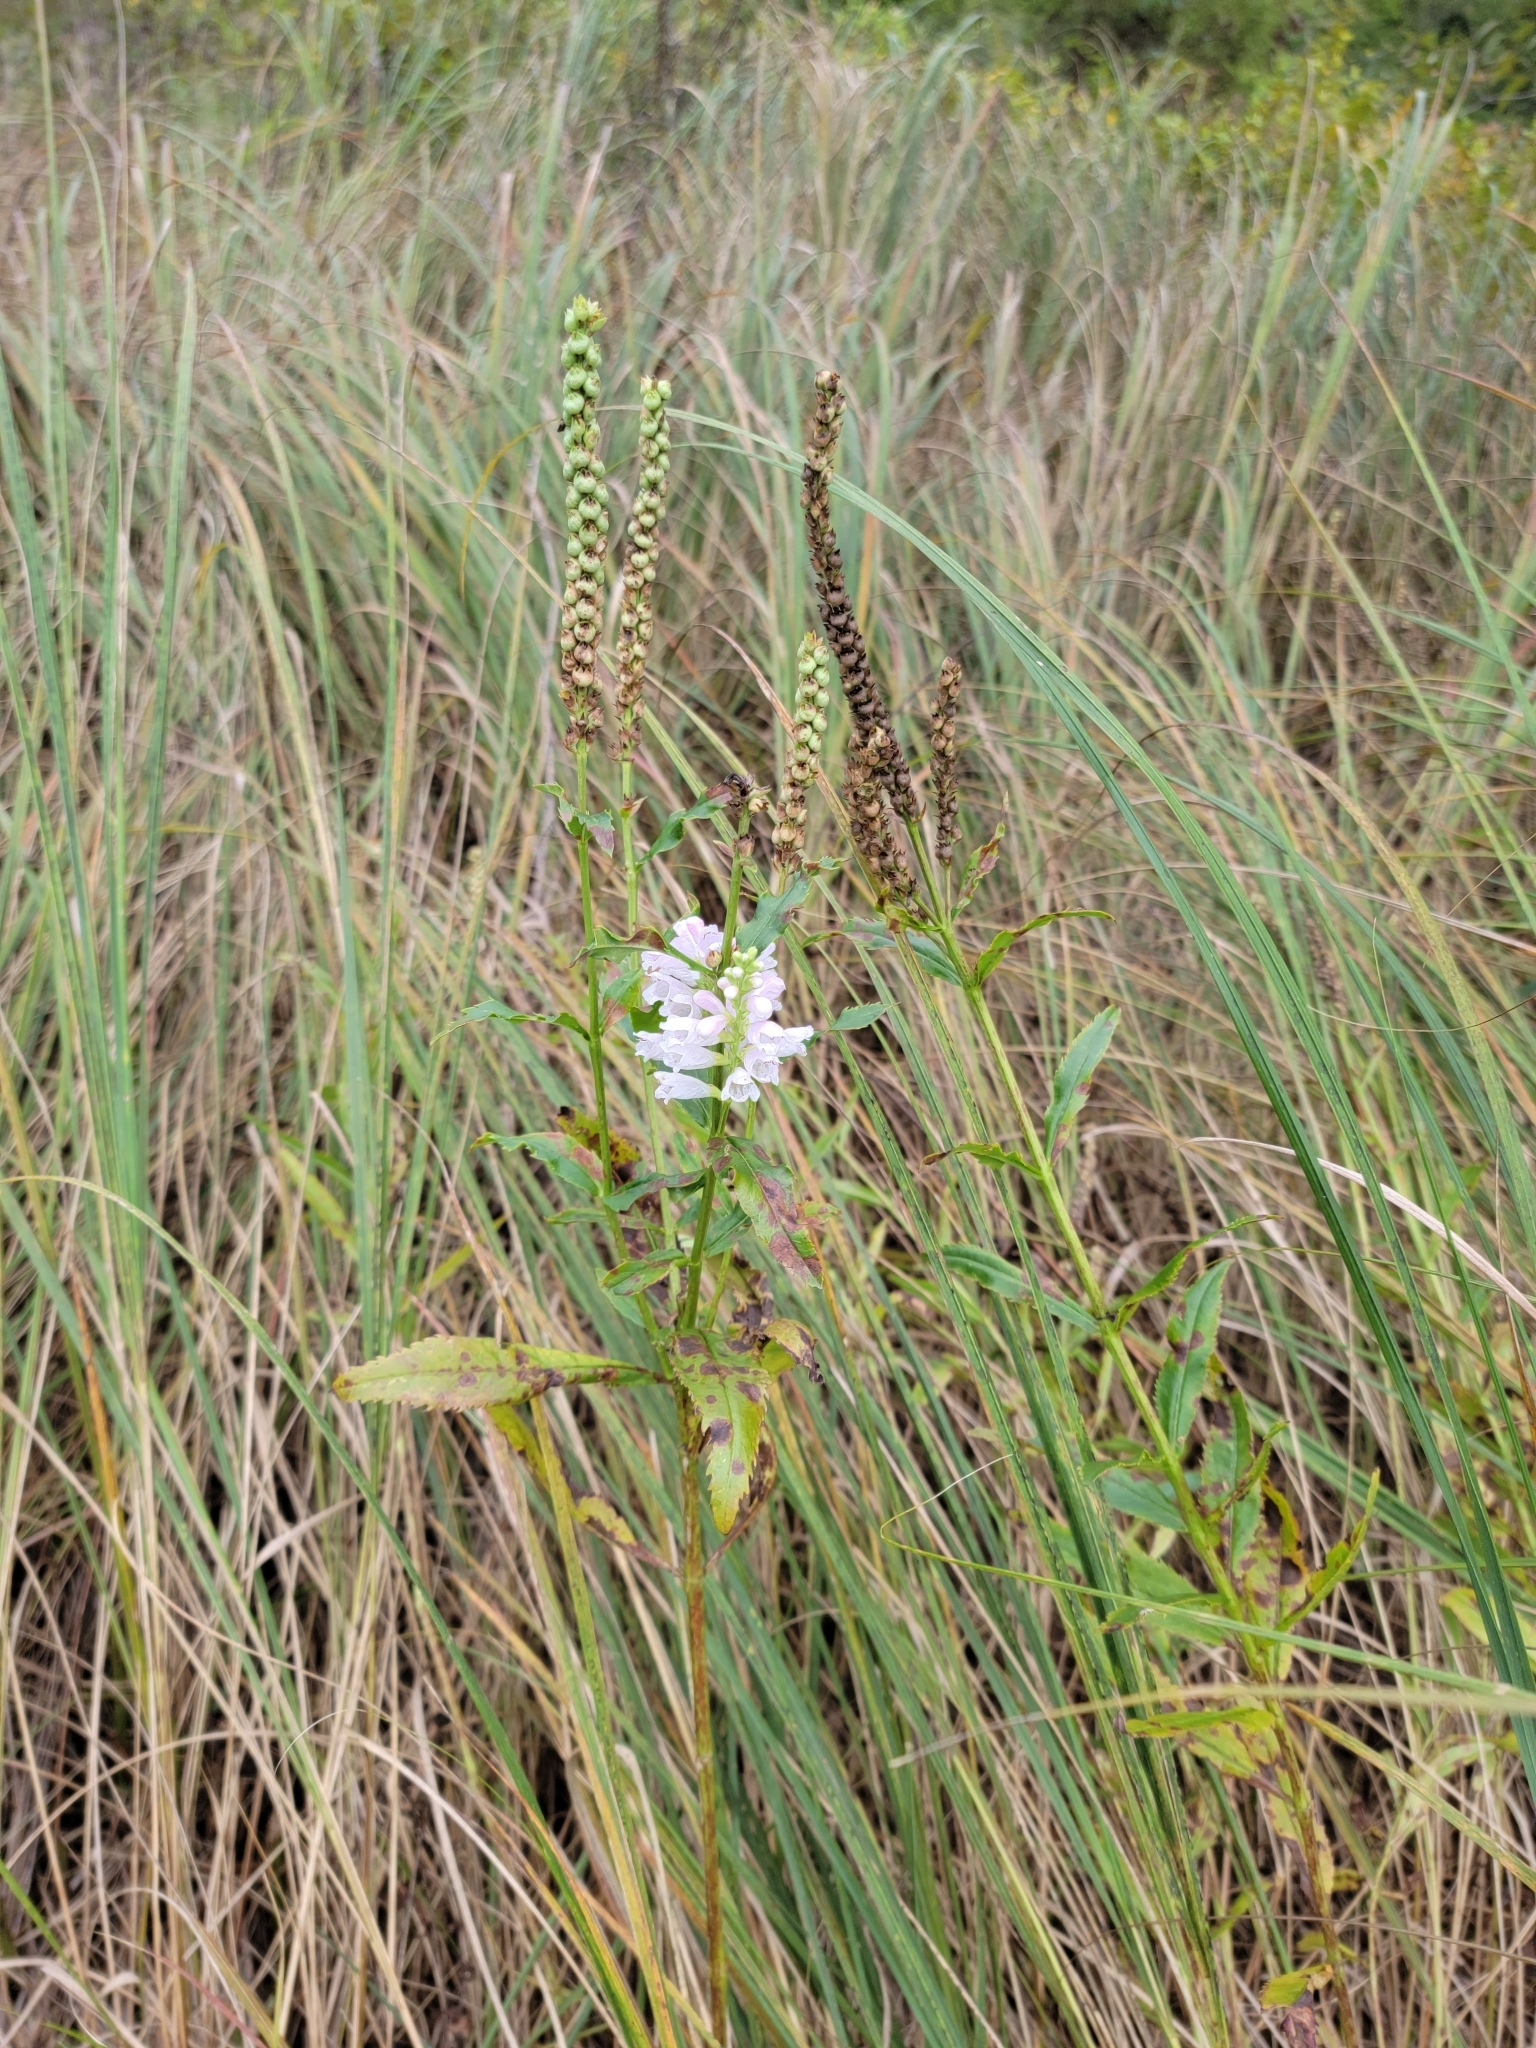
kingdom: Plantae
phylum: Tracheophyta
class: Magnoliopsida
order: Lamiales
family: Lamiaceae
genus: Physostegia
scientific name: Physostegia virginiana
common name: Obedient-plant
